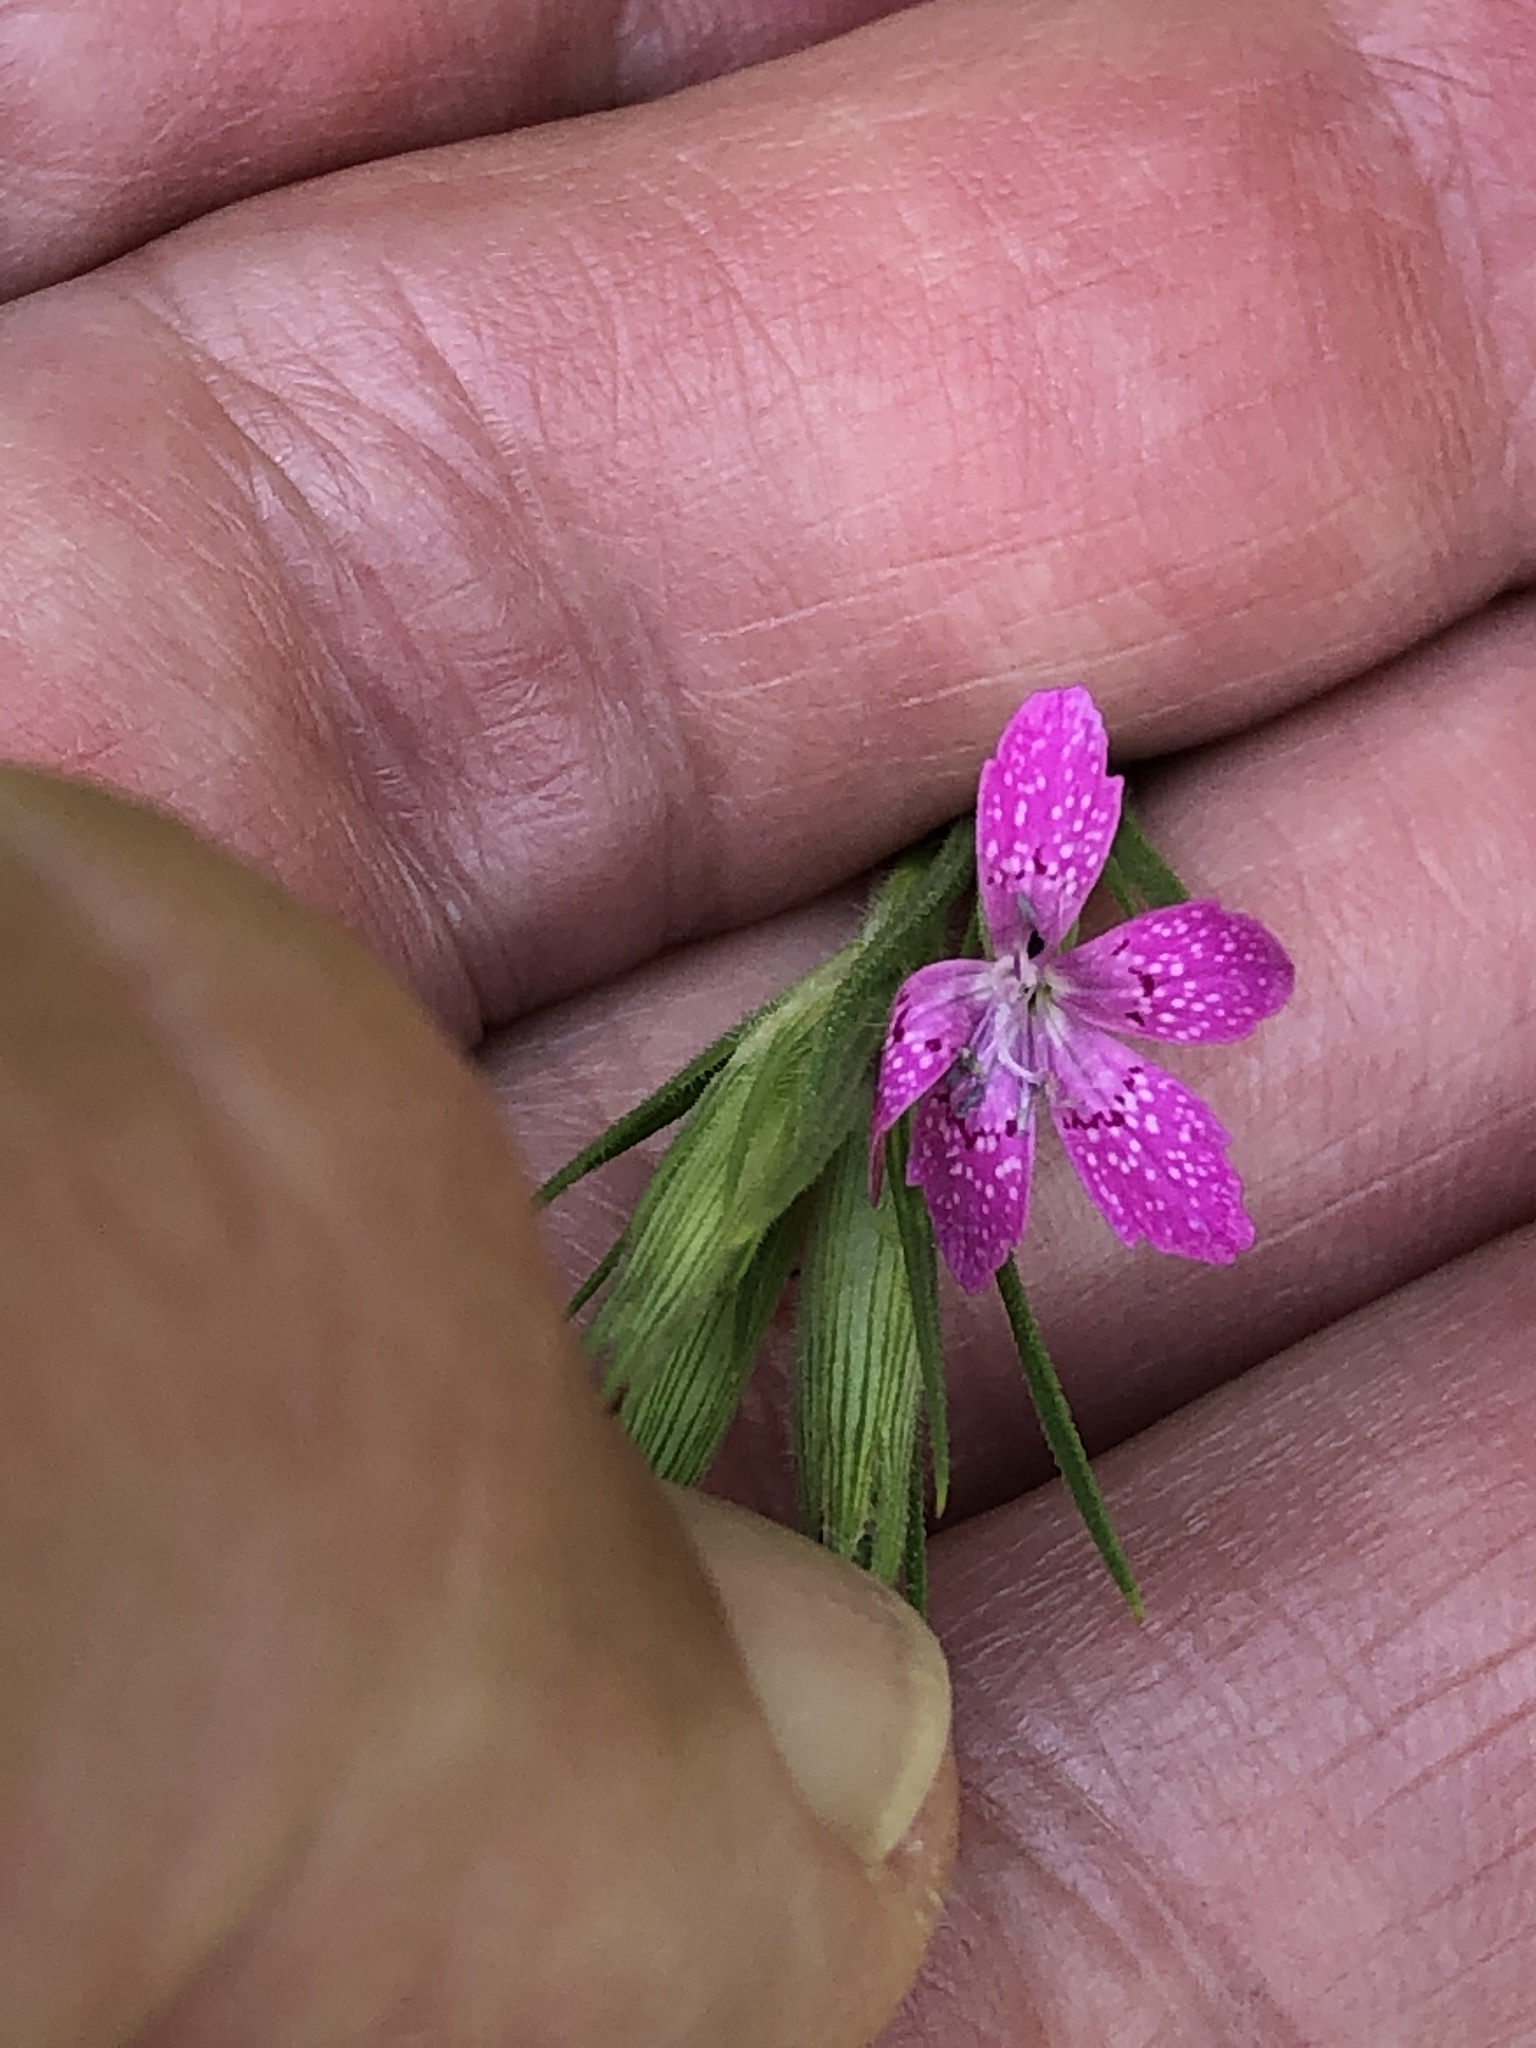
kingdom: Plantae
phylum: Tracheophyta
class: Magnoliopsida
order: Caryophyllales
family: Caryophyllaceae
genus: Dianthus
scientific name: Dianthus armeria
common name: Deptford pink
